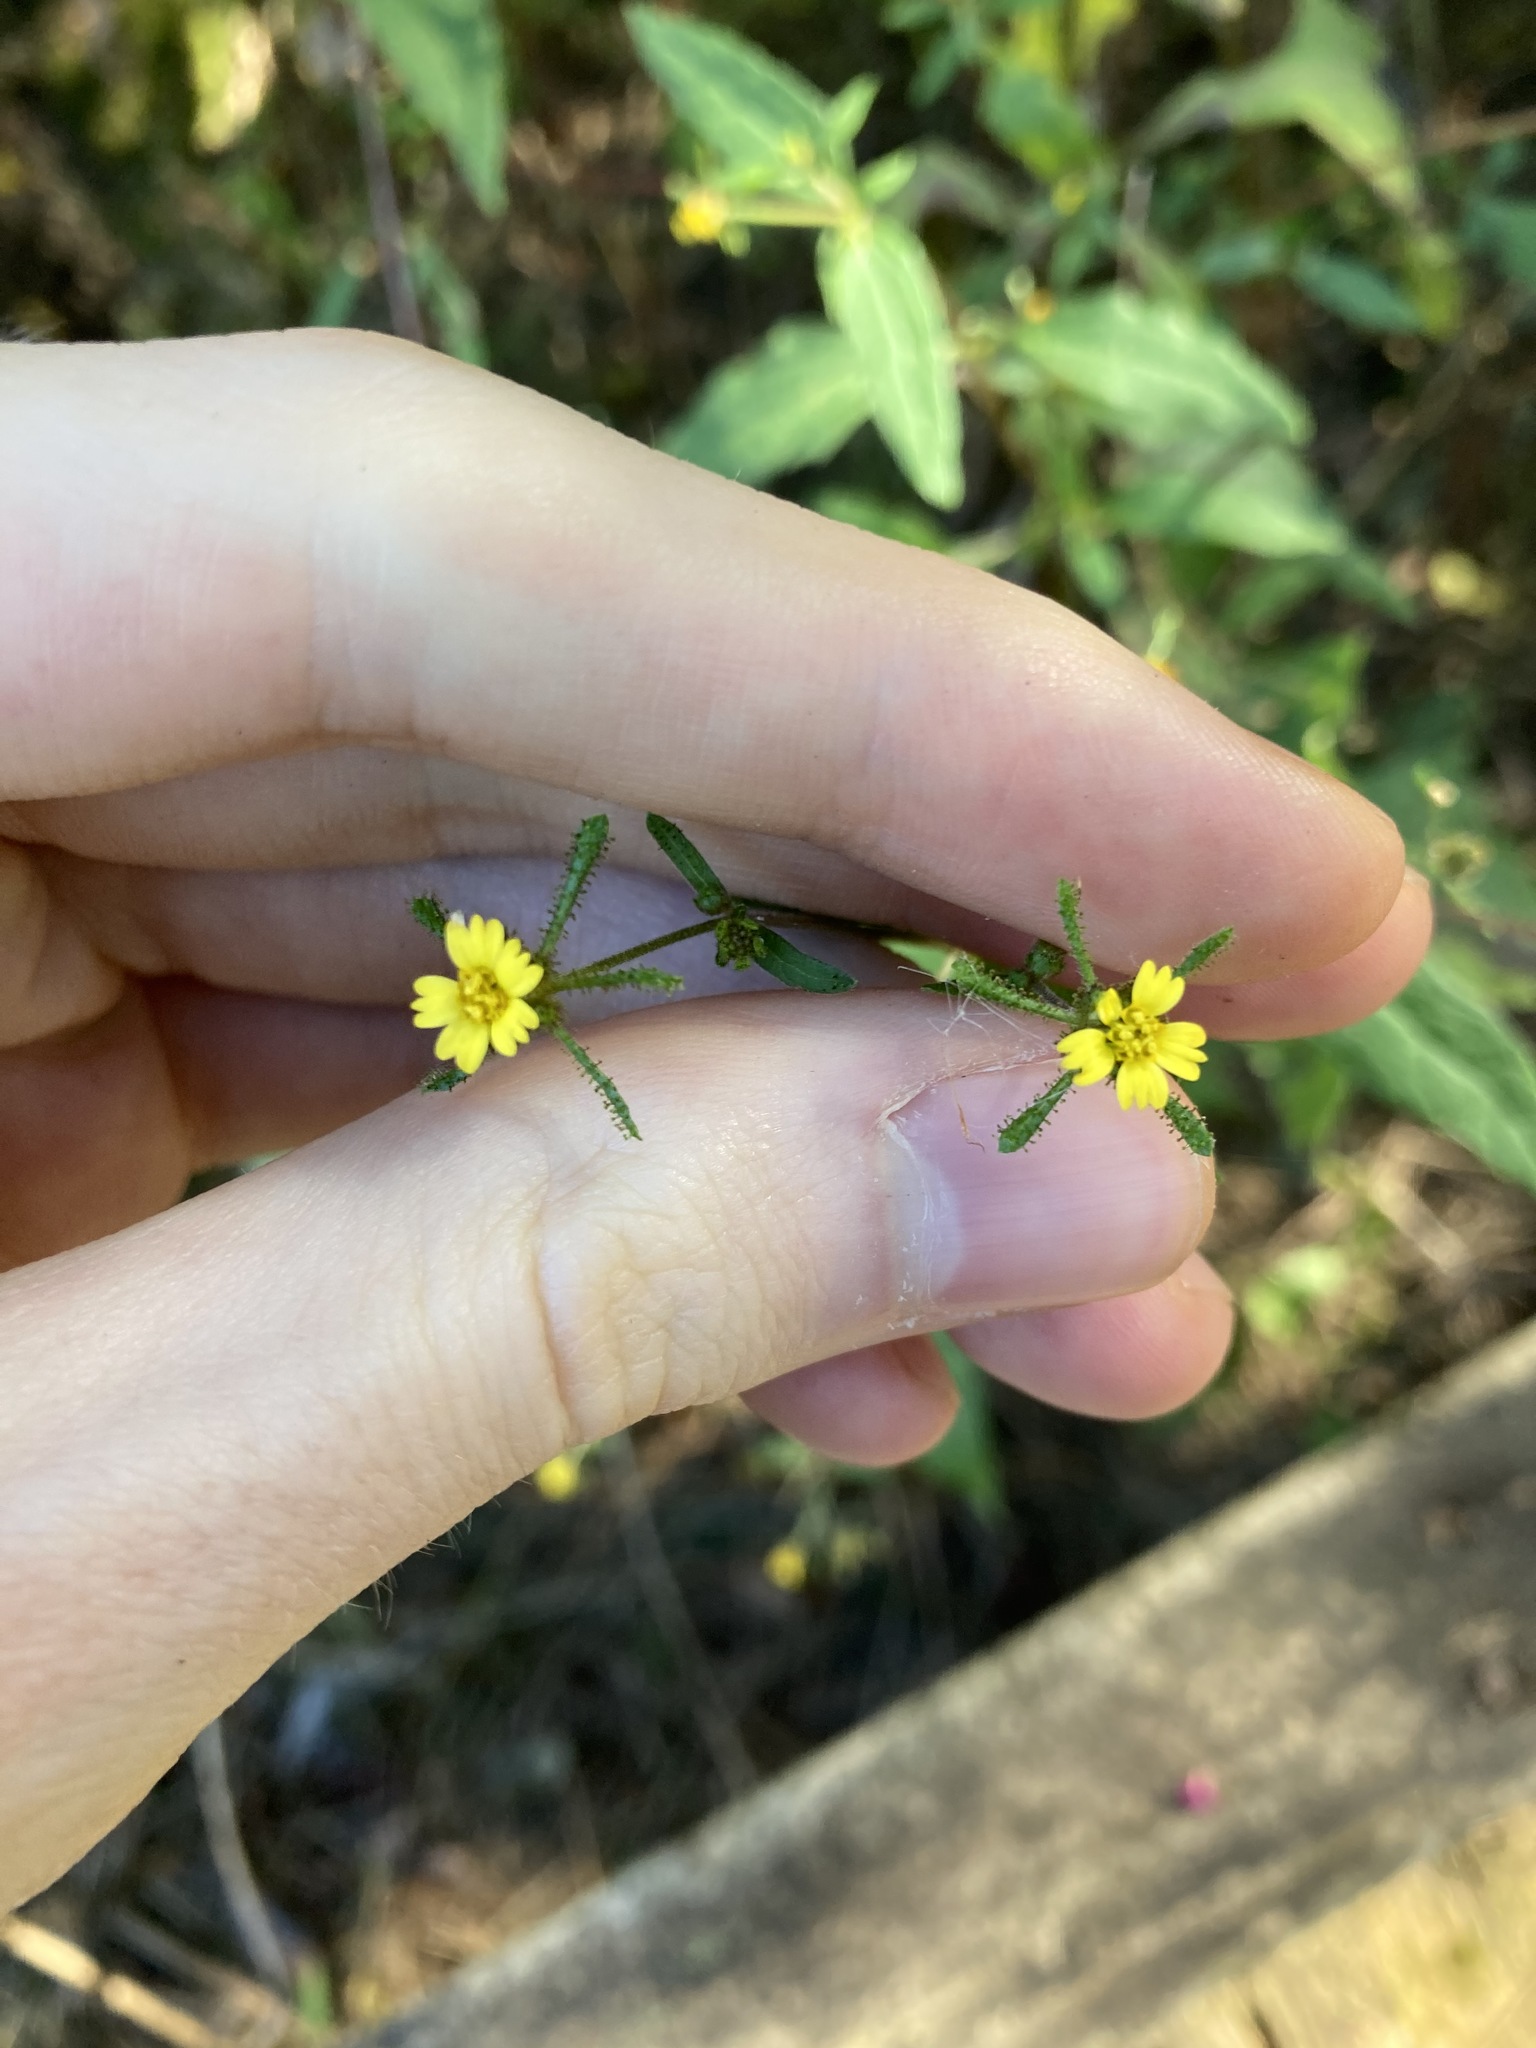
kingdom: Plantae
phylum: Tracheophyta
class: Magnoliopsida
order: Asterales
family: Asteraceae
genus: Sigesbeckia
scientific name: Sigesbeckia orientalis
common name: Eastern st paul's-wort
